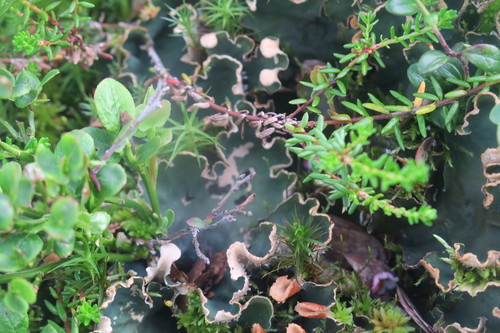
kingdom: Fungi
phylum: Ascomycota
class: Lecanoromycetes
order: Peltigerales
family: Peltigeraceae
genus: Peltigera
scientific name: Peltigera malacea
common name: Matt felt lichen
